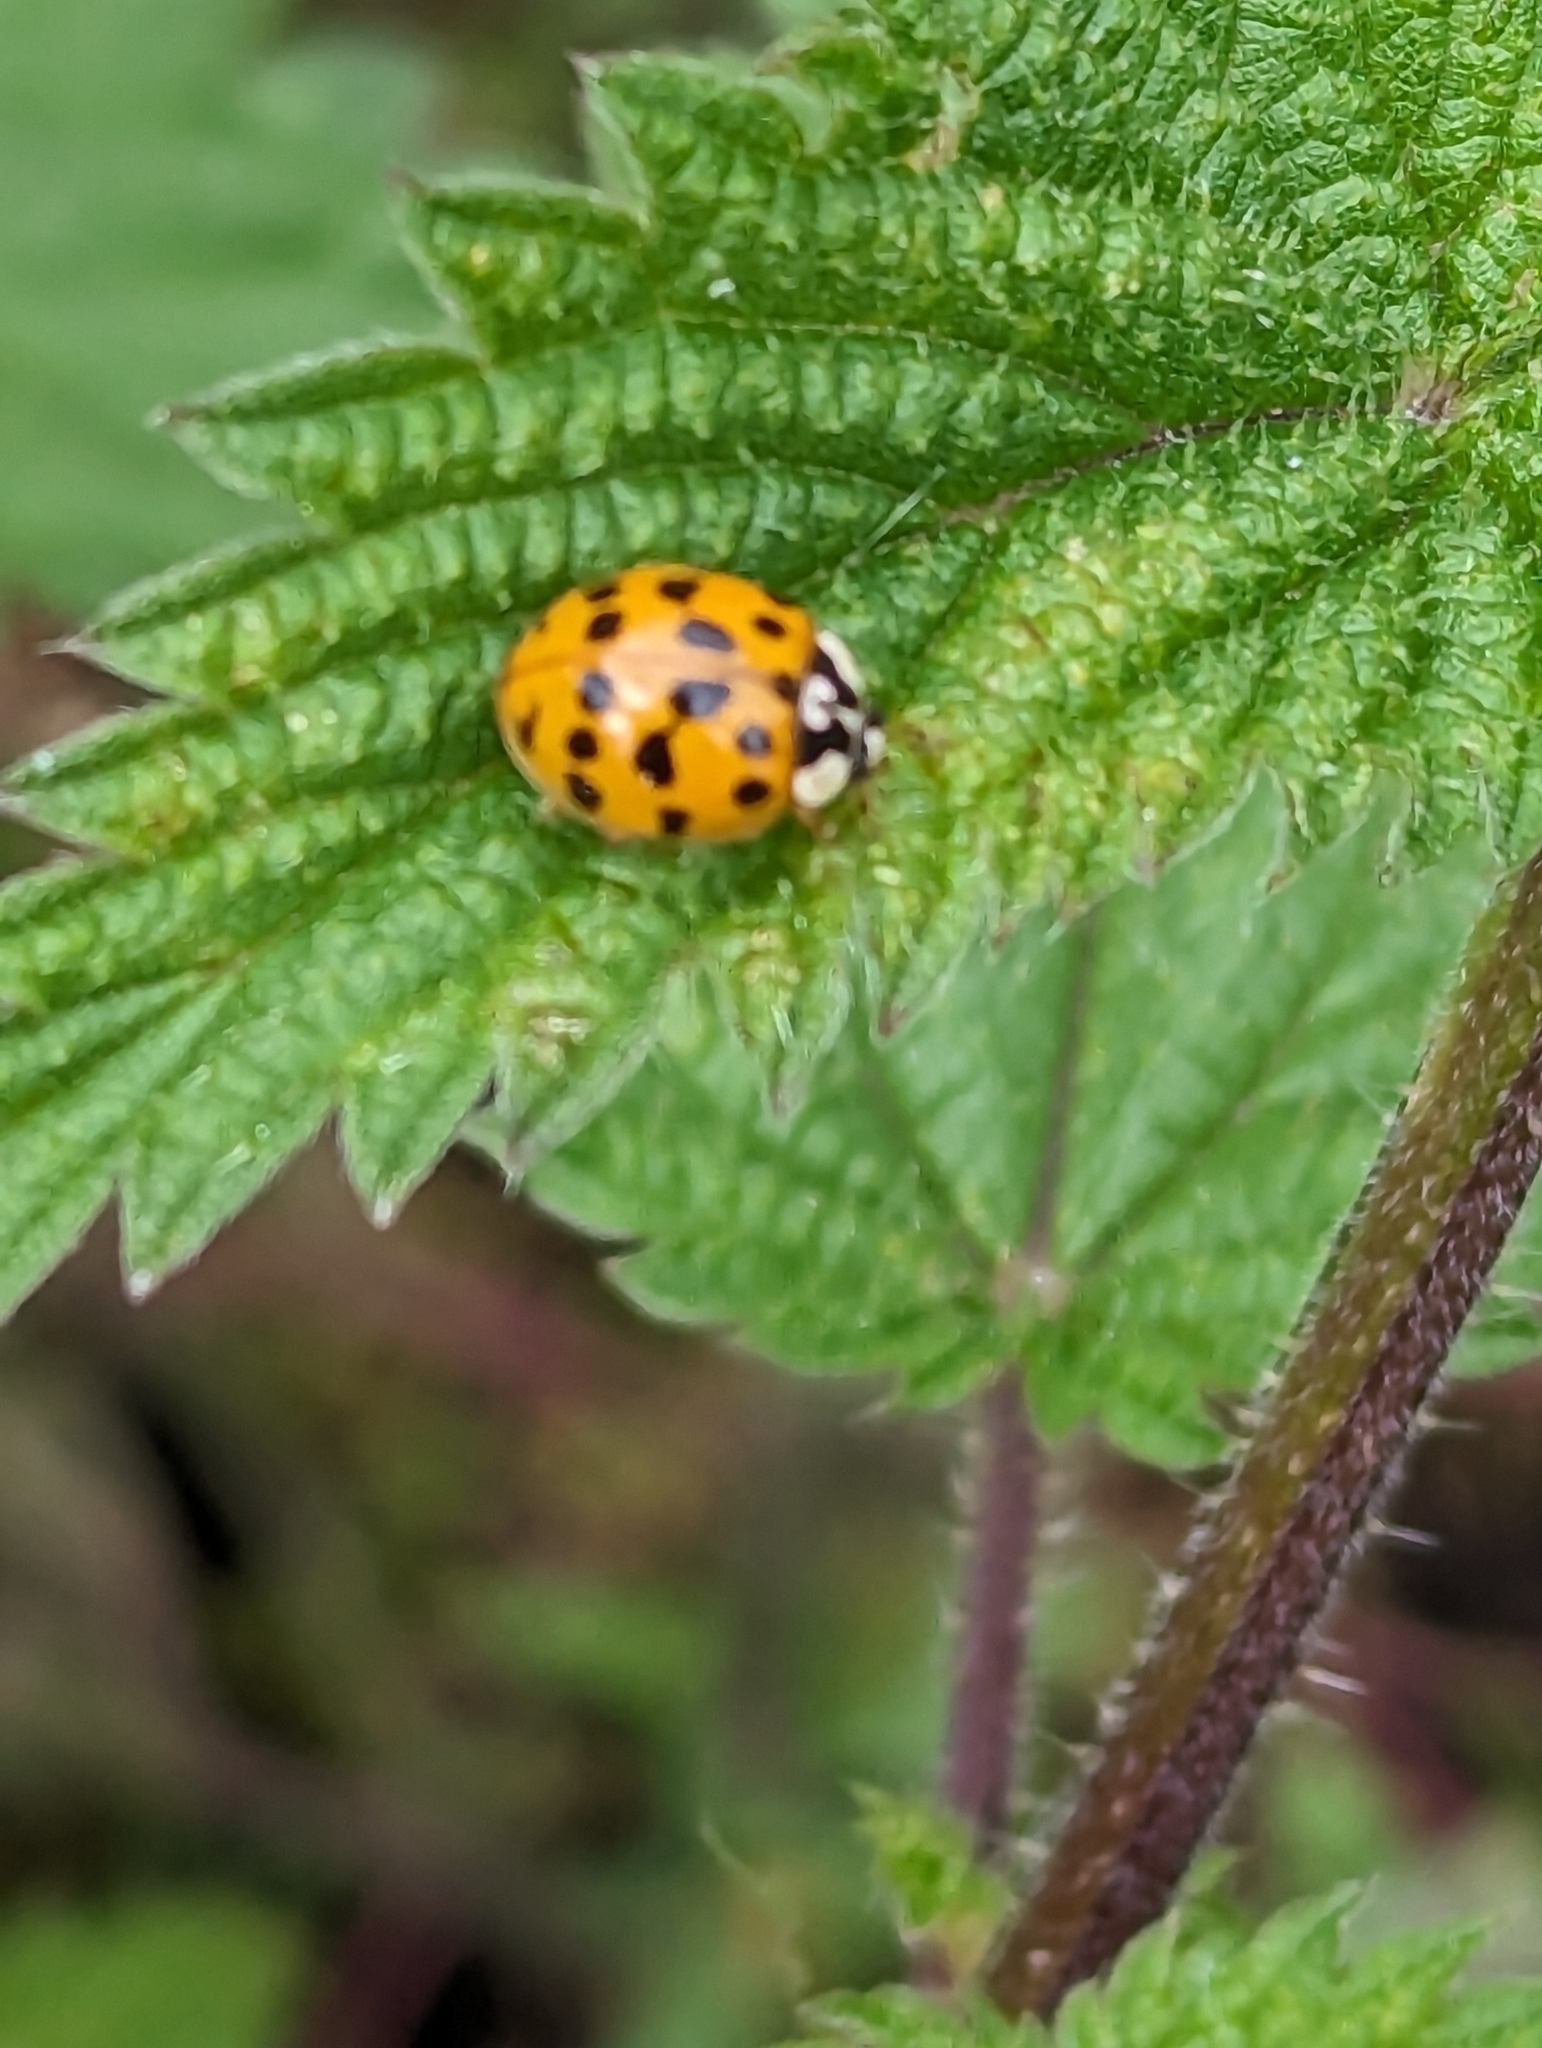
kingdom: Animalia
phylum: Arthropoda
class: Insecta
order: Coleoptera
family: Coccinellidae
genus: Harmonia
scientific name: Harmonia axyridis
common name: Harlequin ladybird
